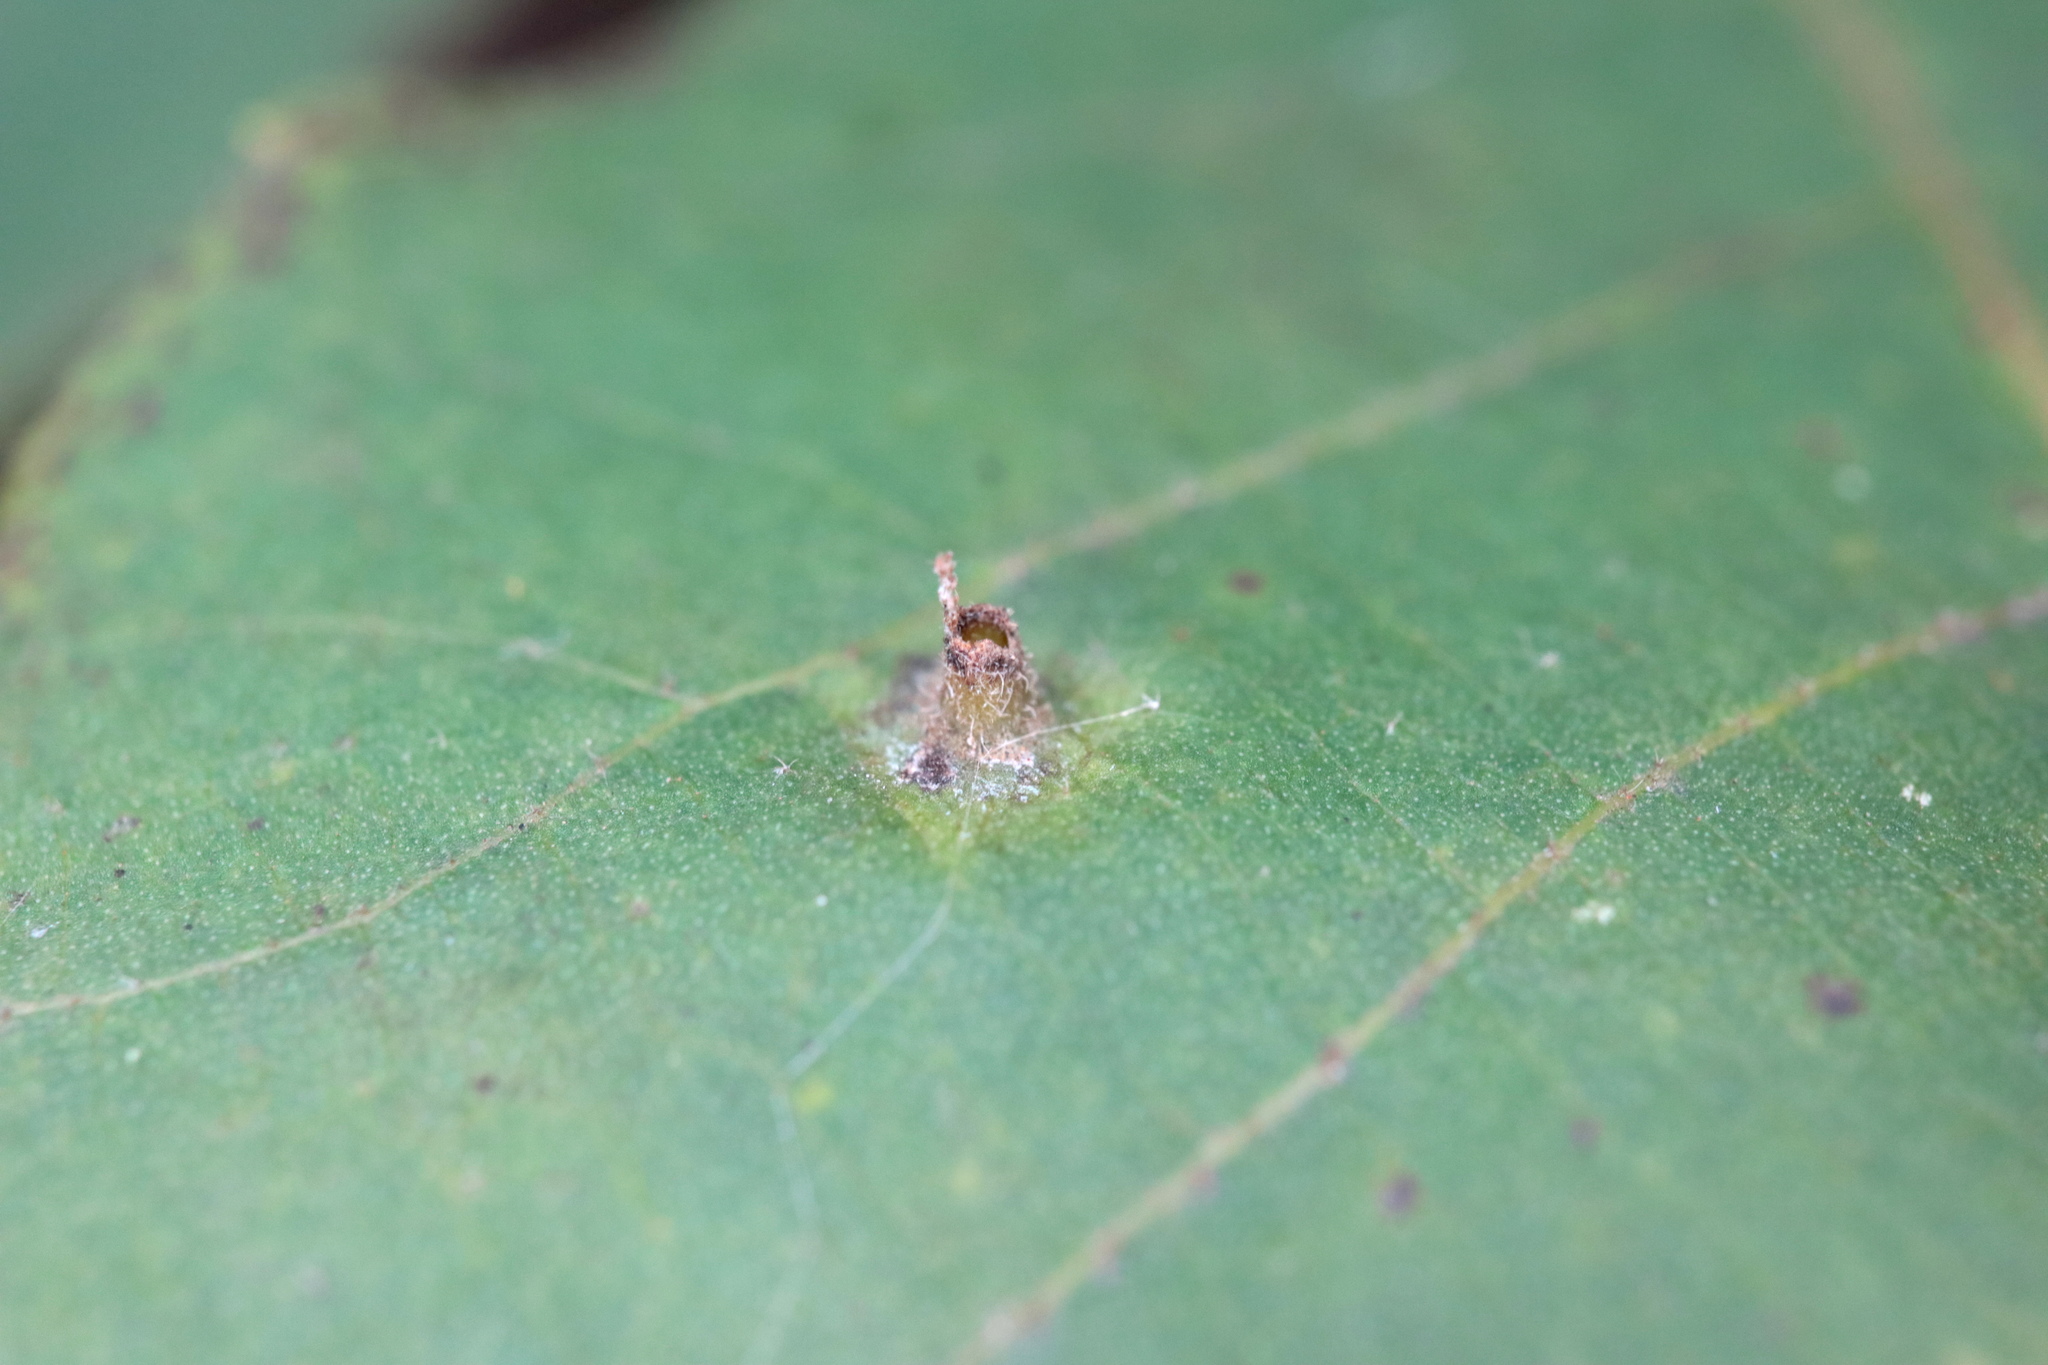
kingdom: Animalia
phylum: Arthropoda
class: Insecta
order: Diptera
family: Cecidomyiidae
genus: Caryomyia
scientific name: Caryomyia caminata
